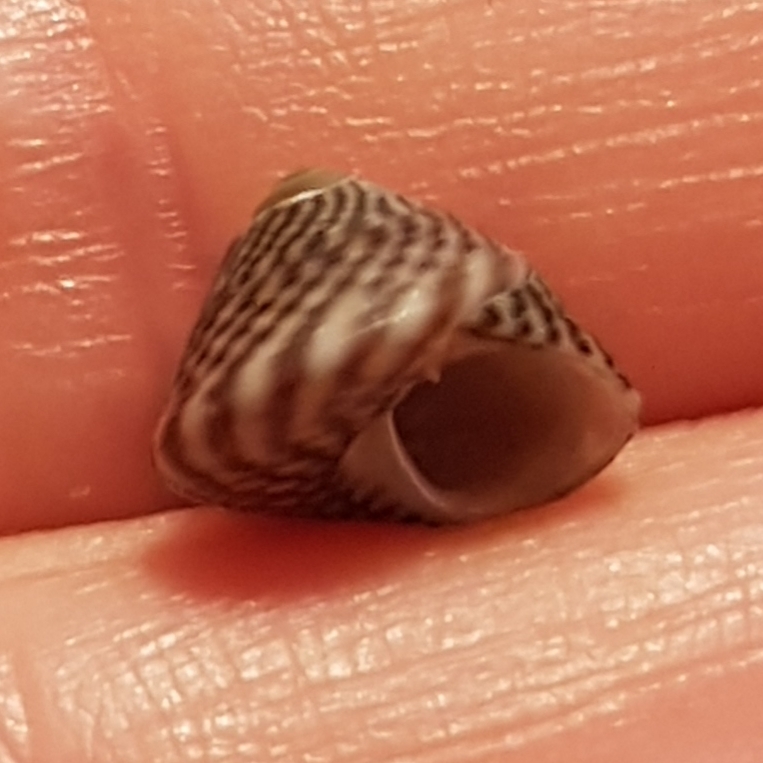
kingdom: Animalia
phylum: Mollusca
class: Gastropoda
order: Trochida
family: Trochidae
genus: Steromphala
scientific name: Steromphala pennanti
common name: Pennant's top shell
